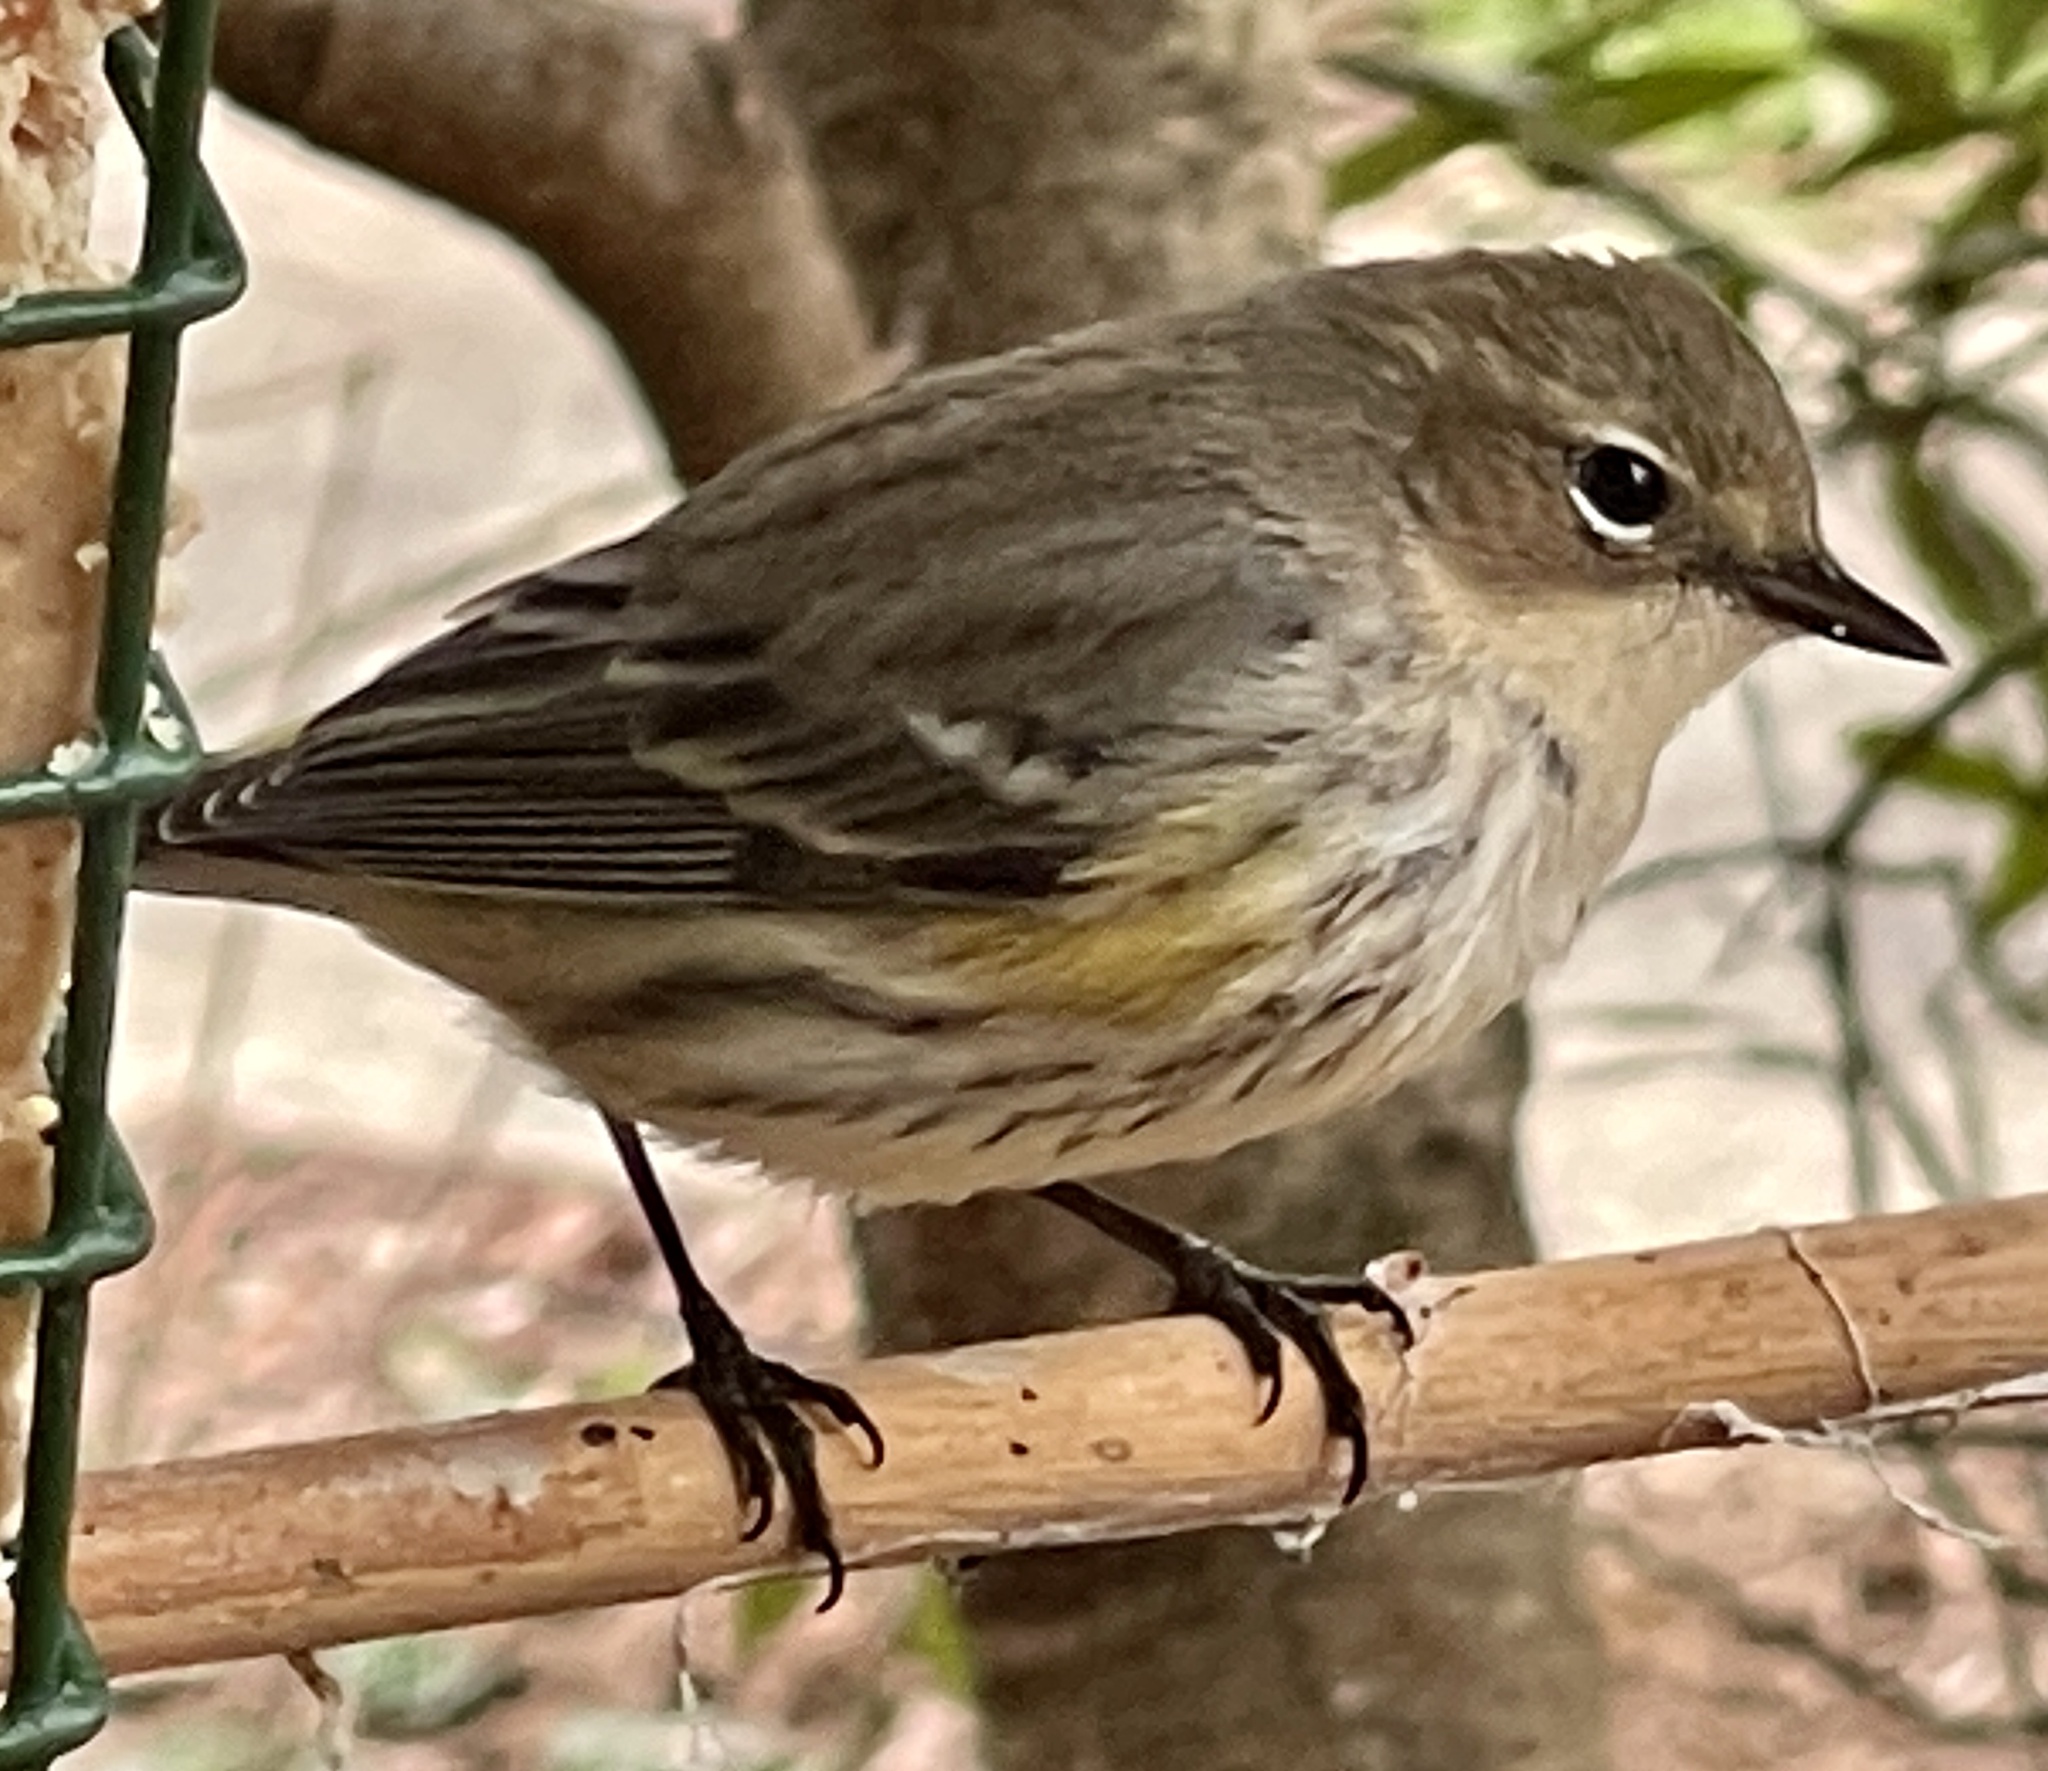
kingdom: Animalia
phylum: Chordata
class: Aves
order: Passeriformes
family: Parulidae
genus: Setophaga
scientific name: Setophaga coronata
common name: Myrtle warbler
